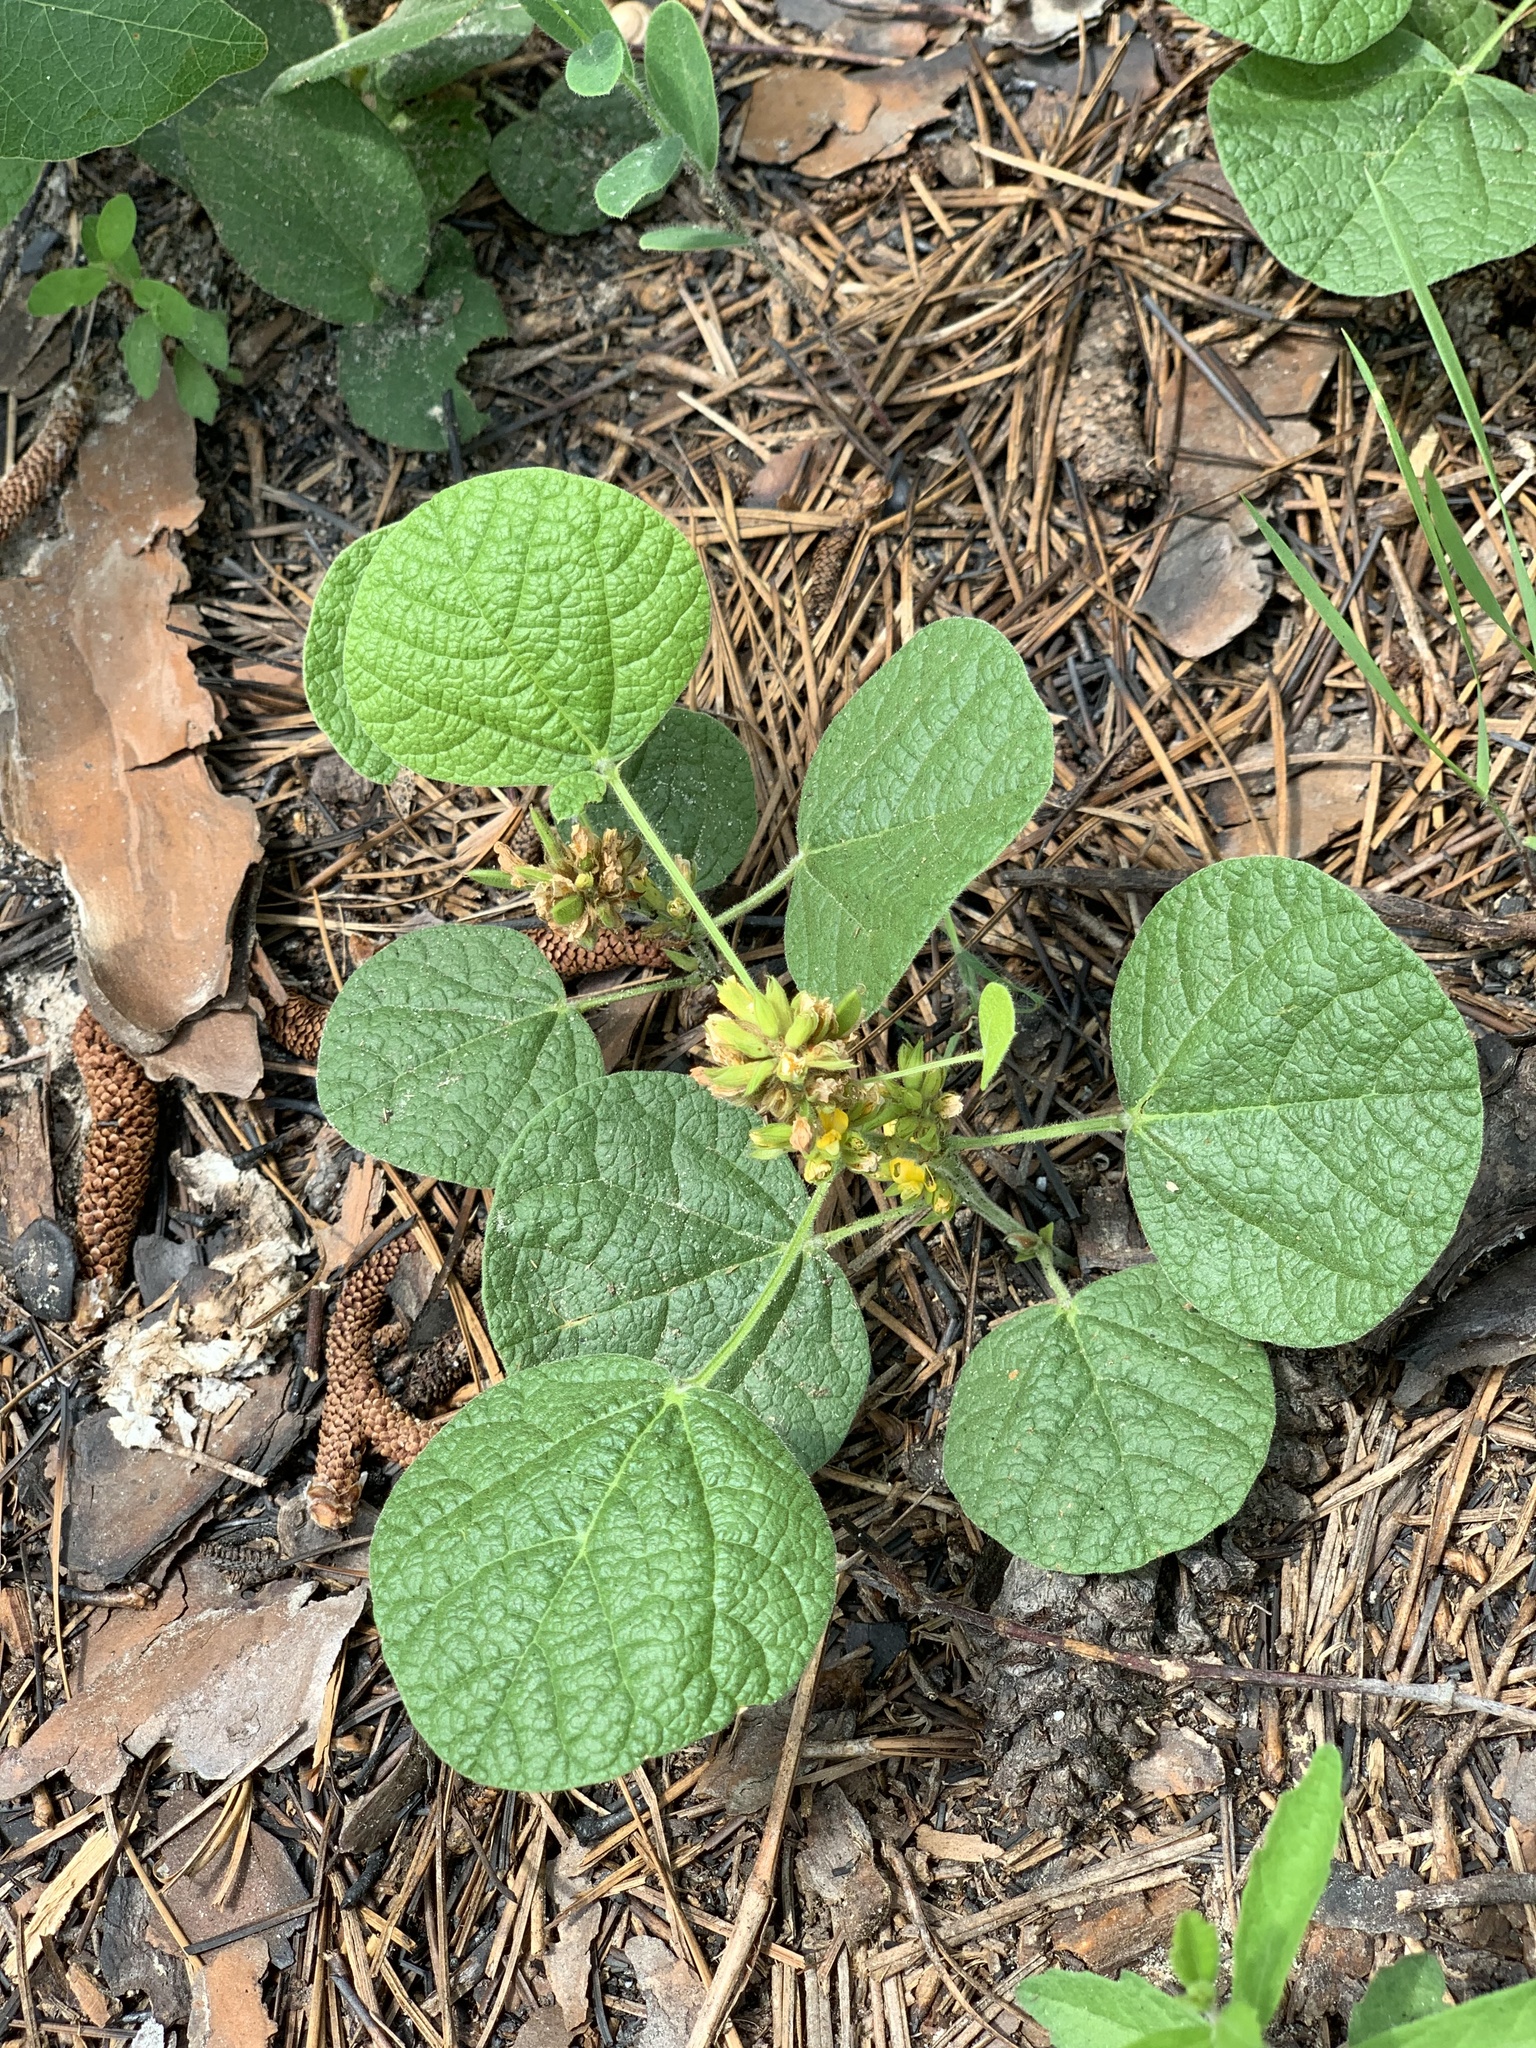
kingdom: Plantae
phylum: Tracheophyta
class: Magnoliopsida
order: Fabales
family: Fabaceae
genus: Rhynchosia
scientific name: Rhynchosia reniformis
